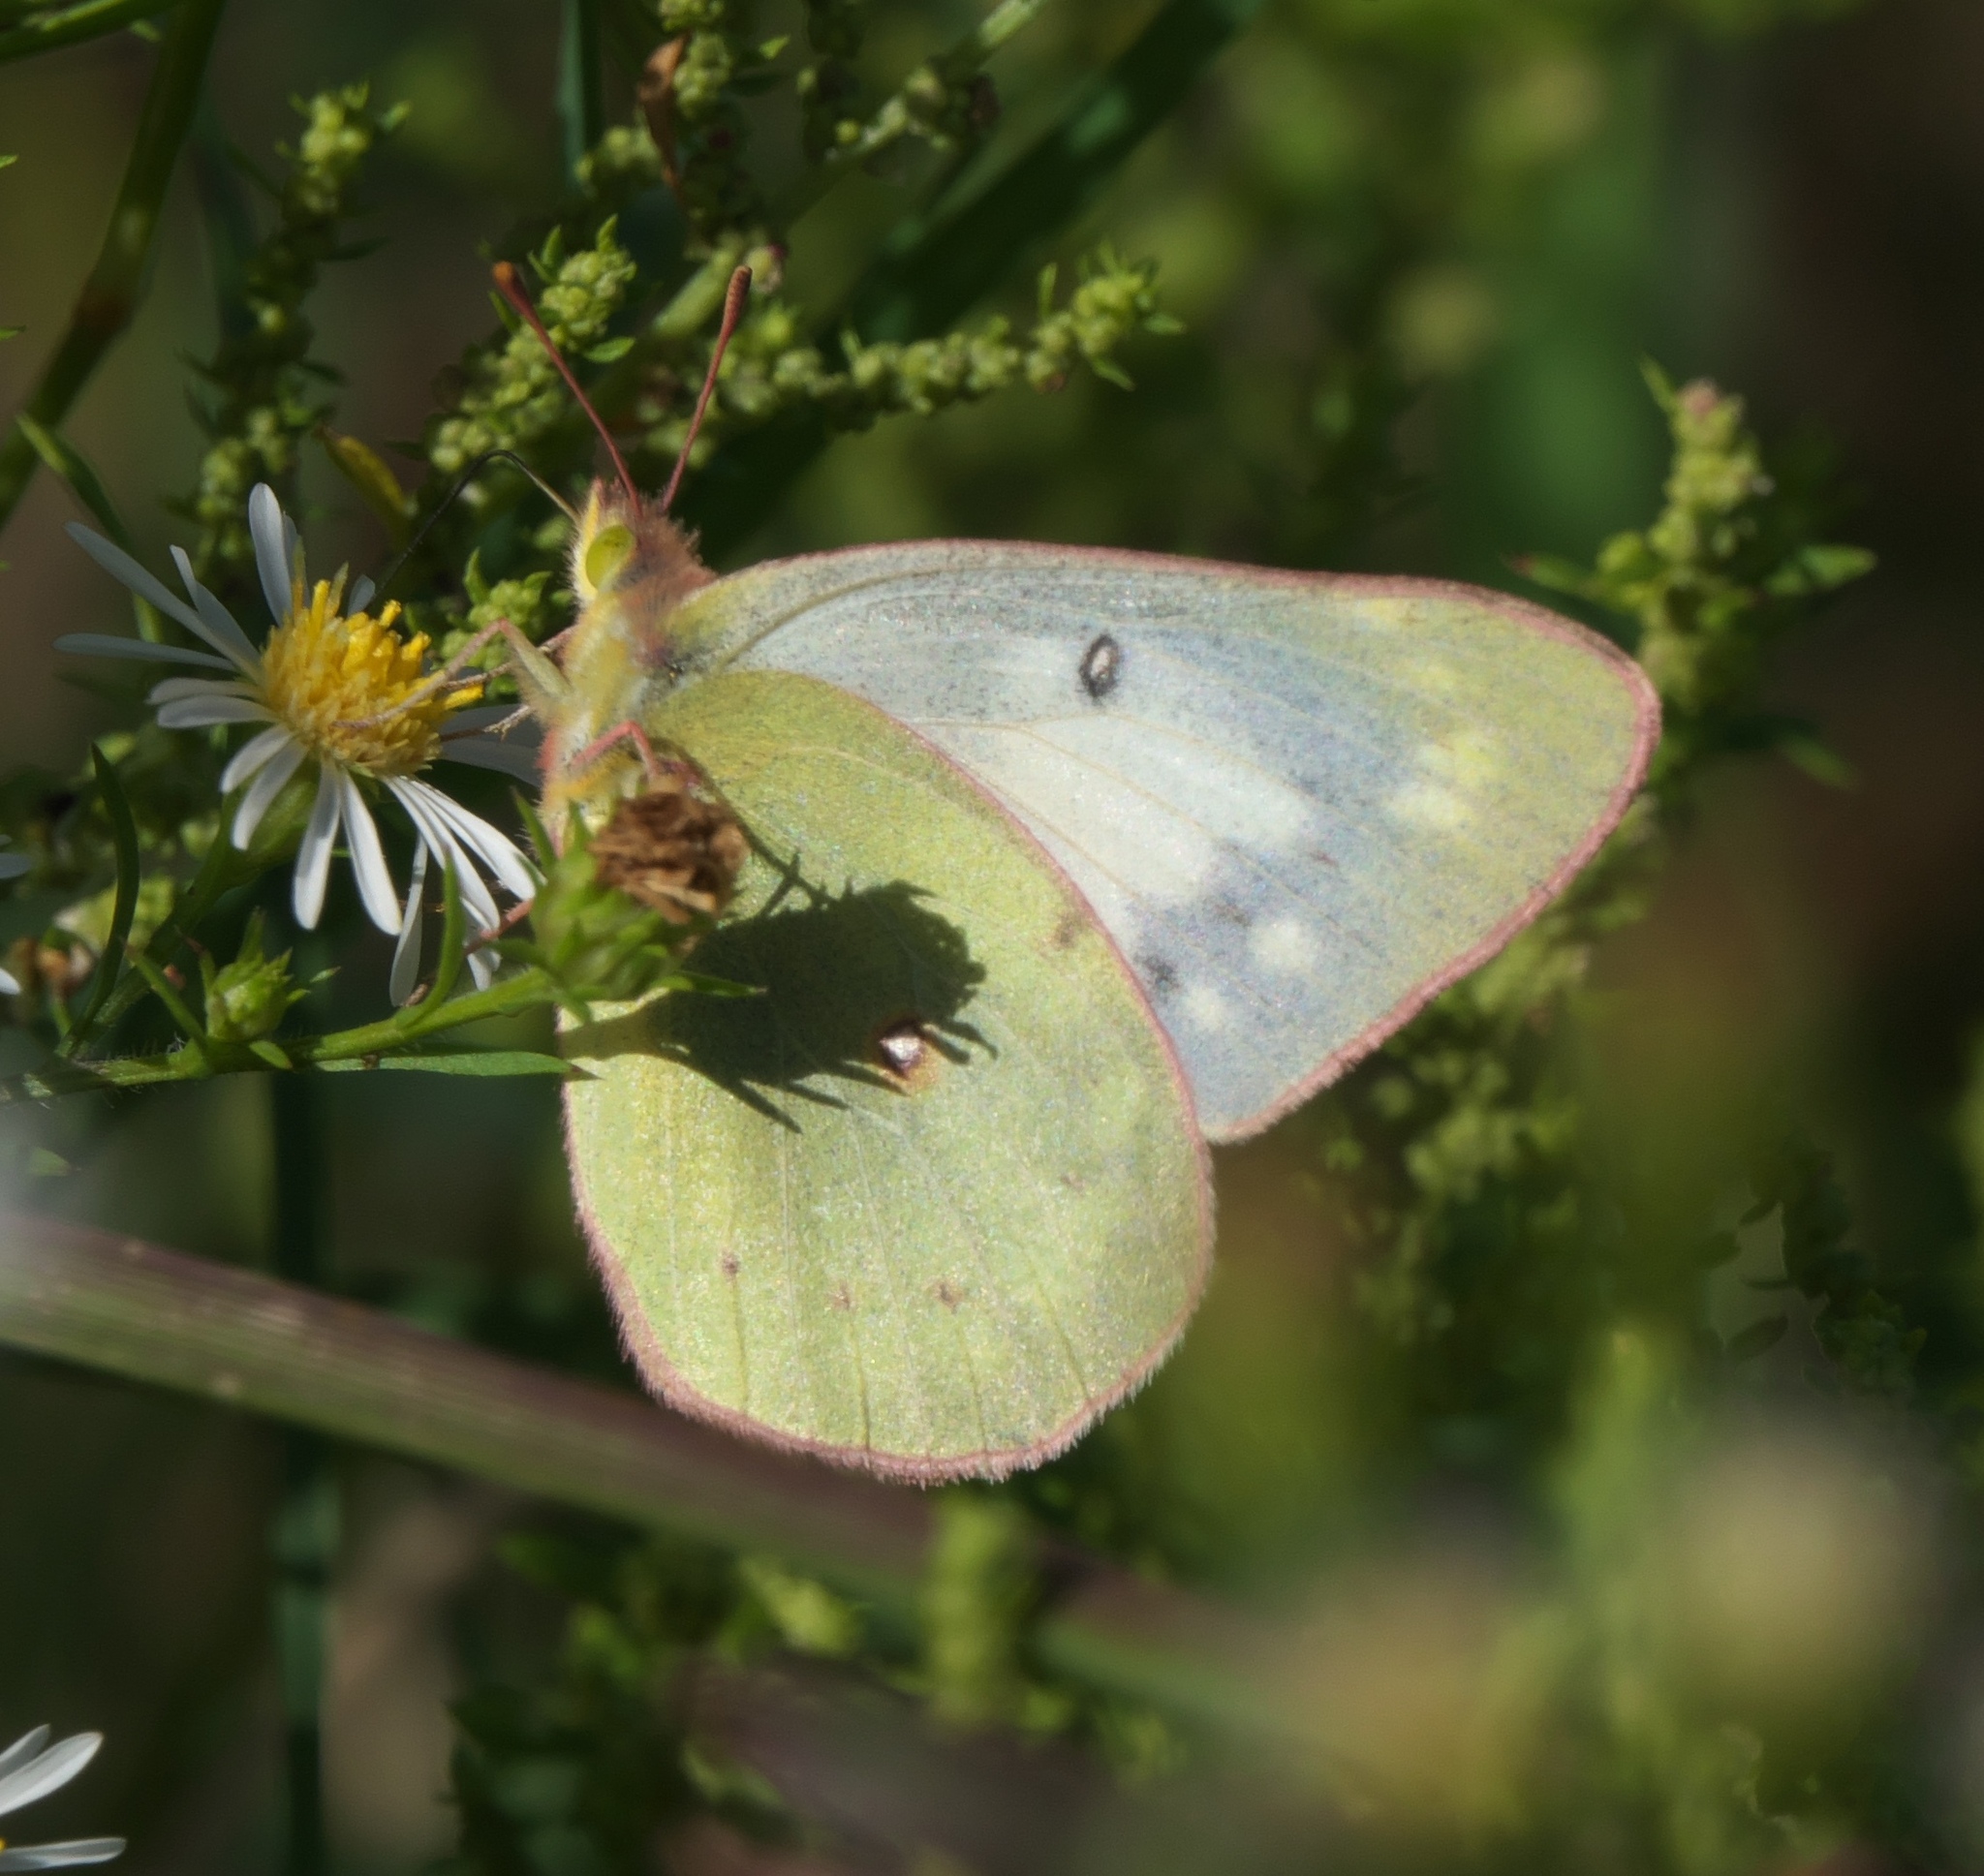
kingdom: Animalia
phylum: Arthropoda
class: Insecta
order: Lepidoptera
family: Pieridae
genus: Colias
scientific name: Colias philodice
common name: Clouded sulphur
